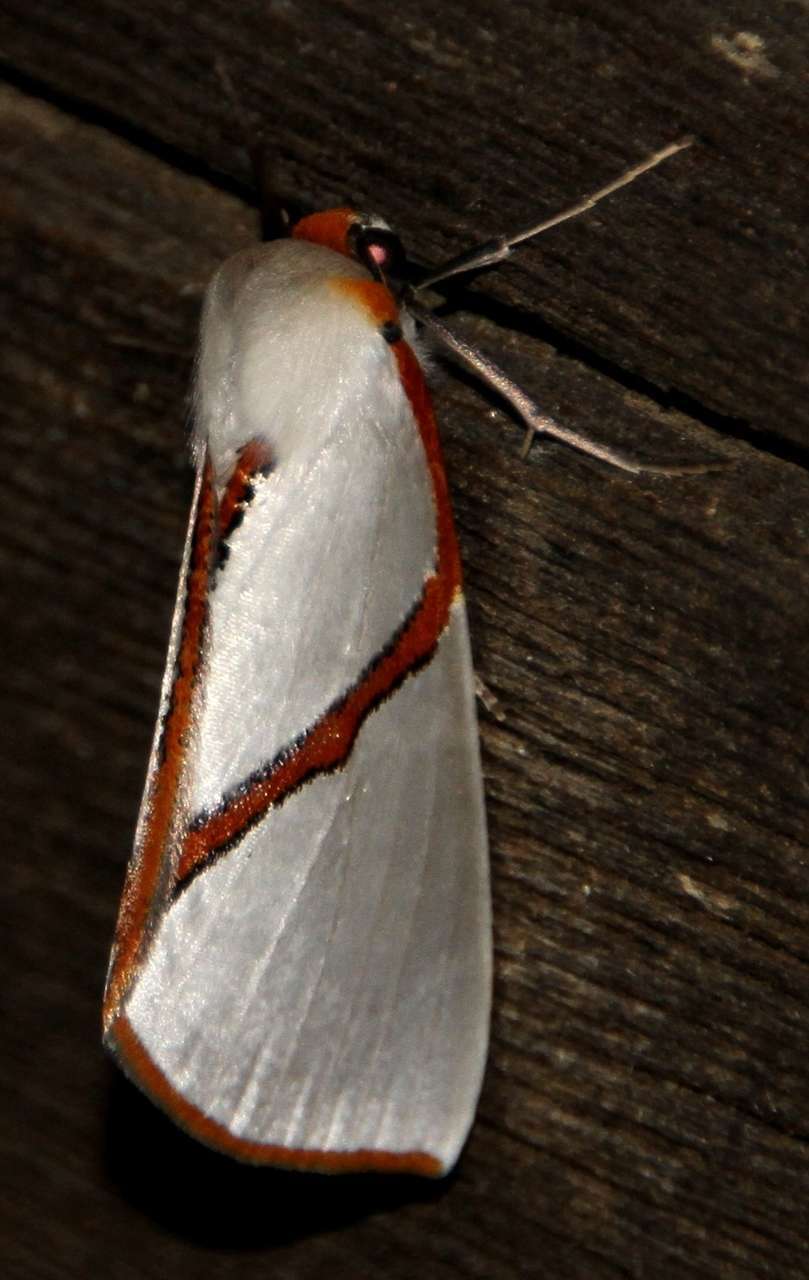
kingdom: Animalia
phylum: Arthropoda
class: Insecta
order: Lepidoptera
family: Geometridae
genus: Thalaina
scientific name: Thalaina selenaea
